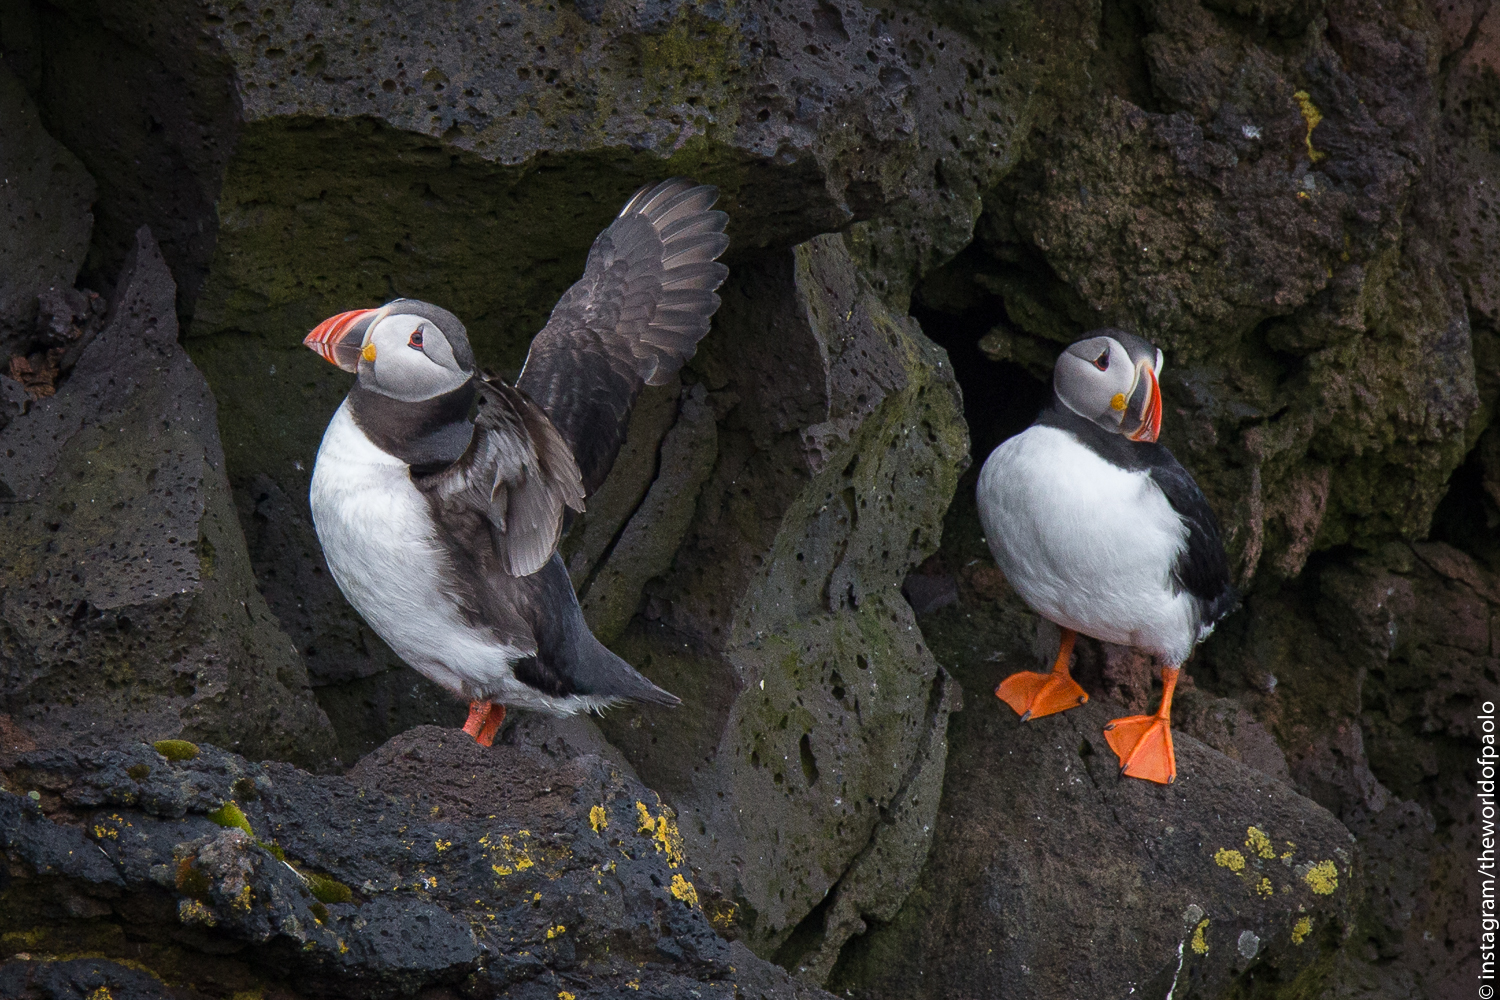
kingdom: Animalia
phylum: Chordata
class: Aves
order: Charadriiformes
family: Alcidae
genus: Fratercula
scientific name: Fratercula arctica
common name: Atlantic puffin
